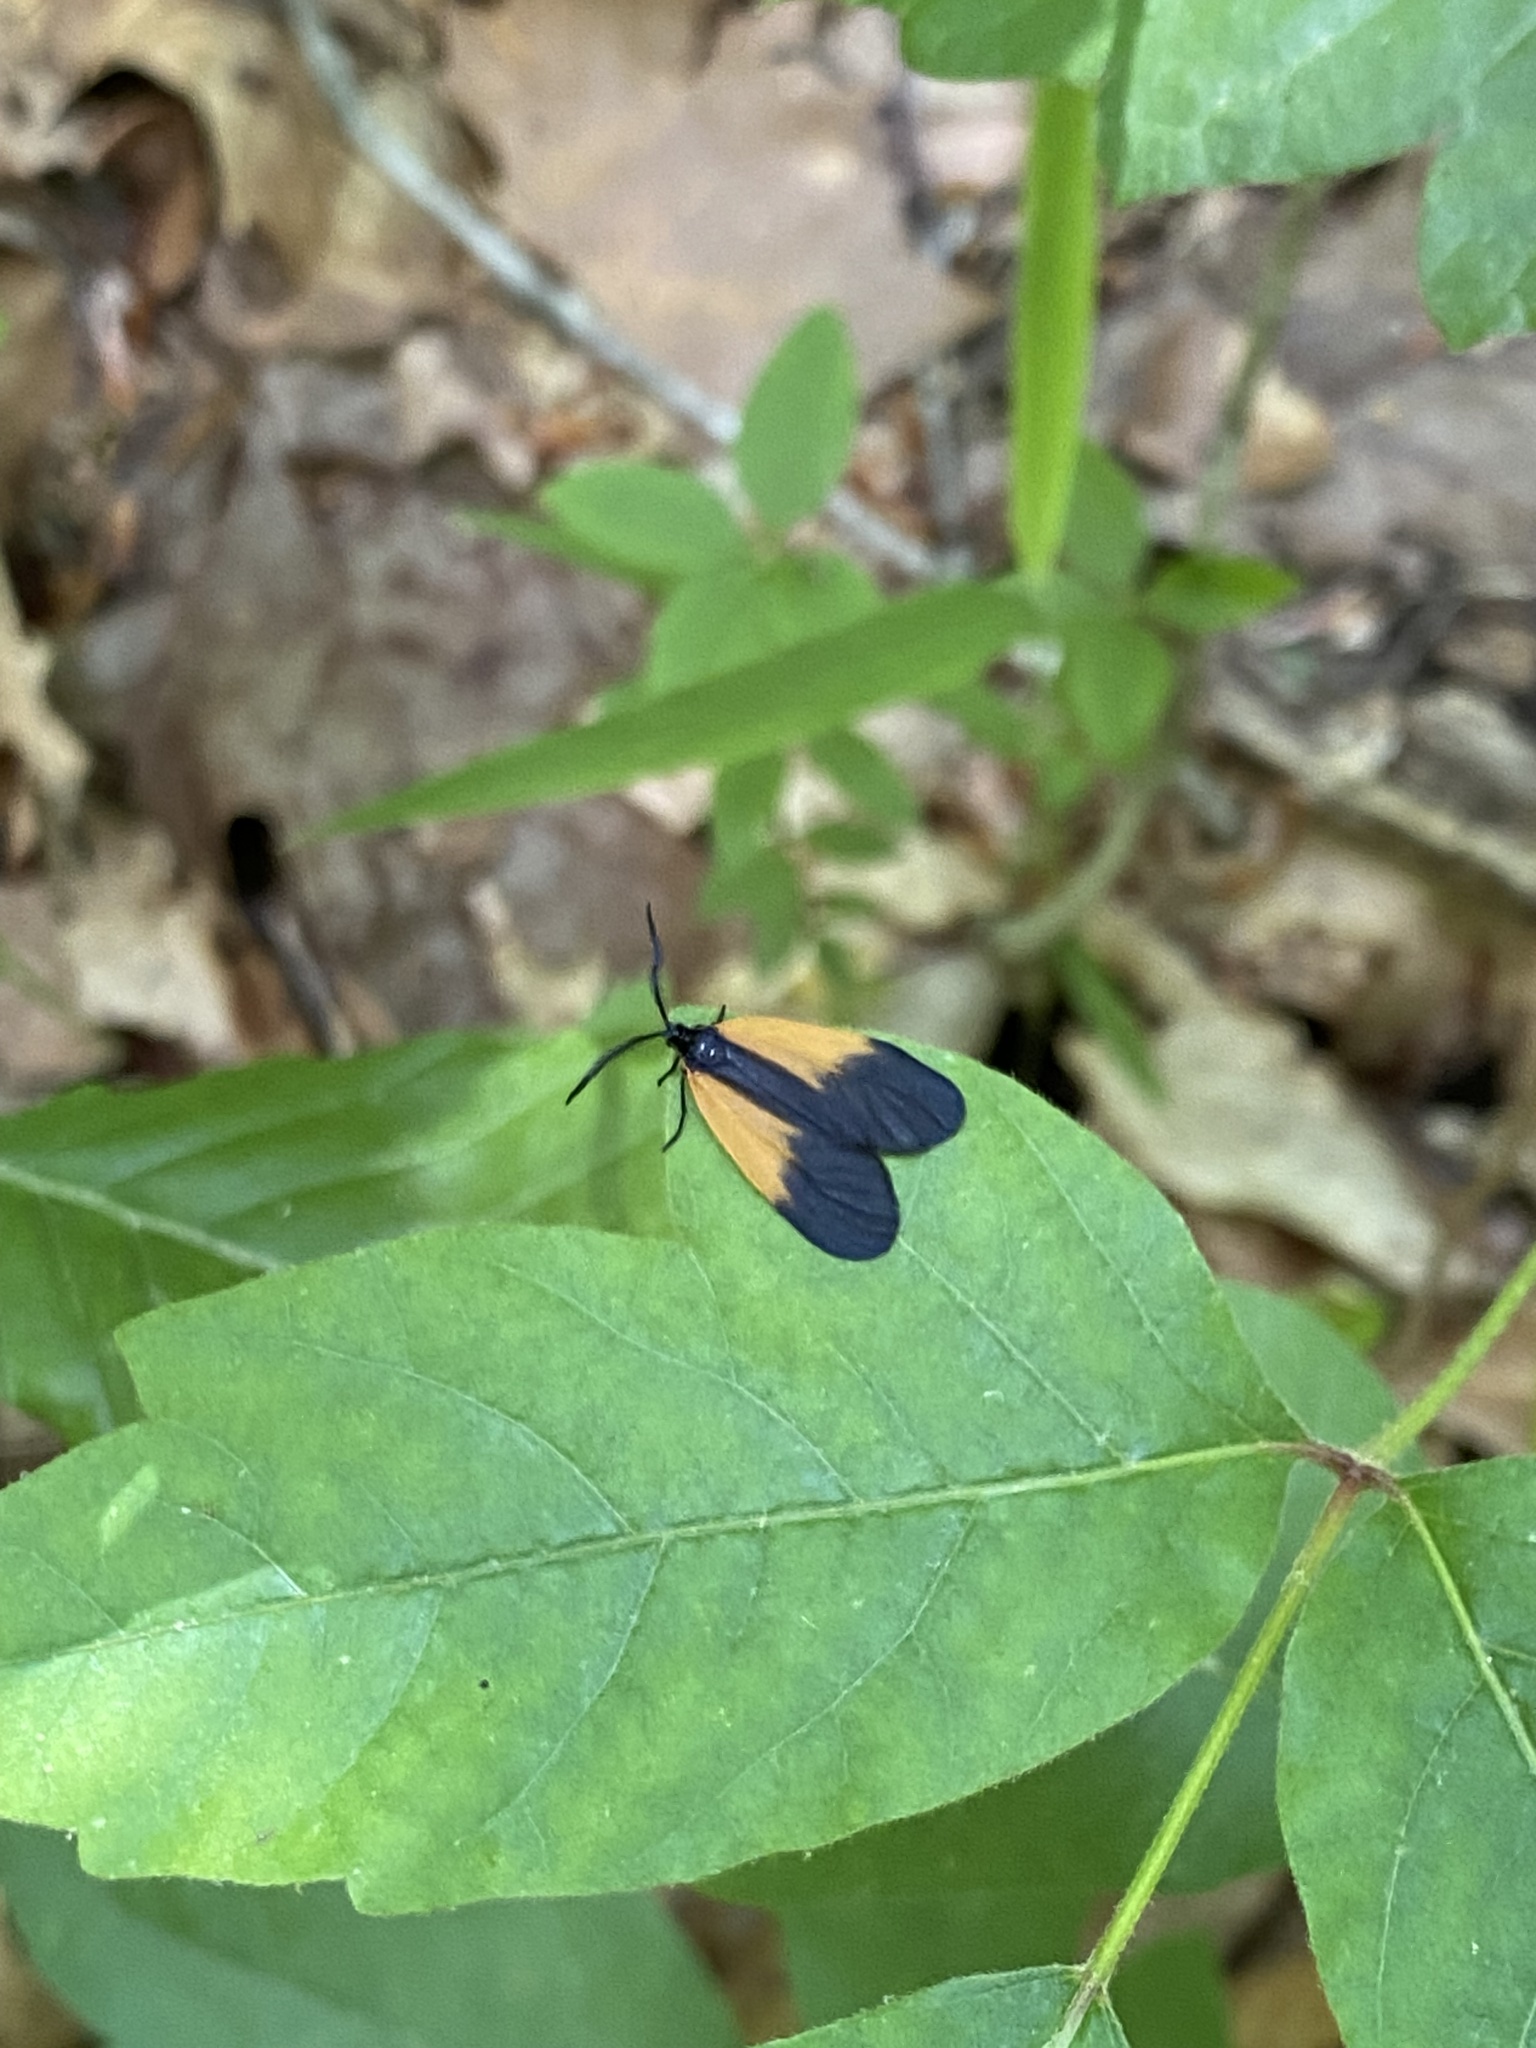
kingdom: Animalia
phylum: Arthropoda
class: Insecta
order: Lepidoptera
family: Zygaenidae
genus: Malthaca
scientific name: Malthaca dimidiata
